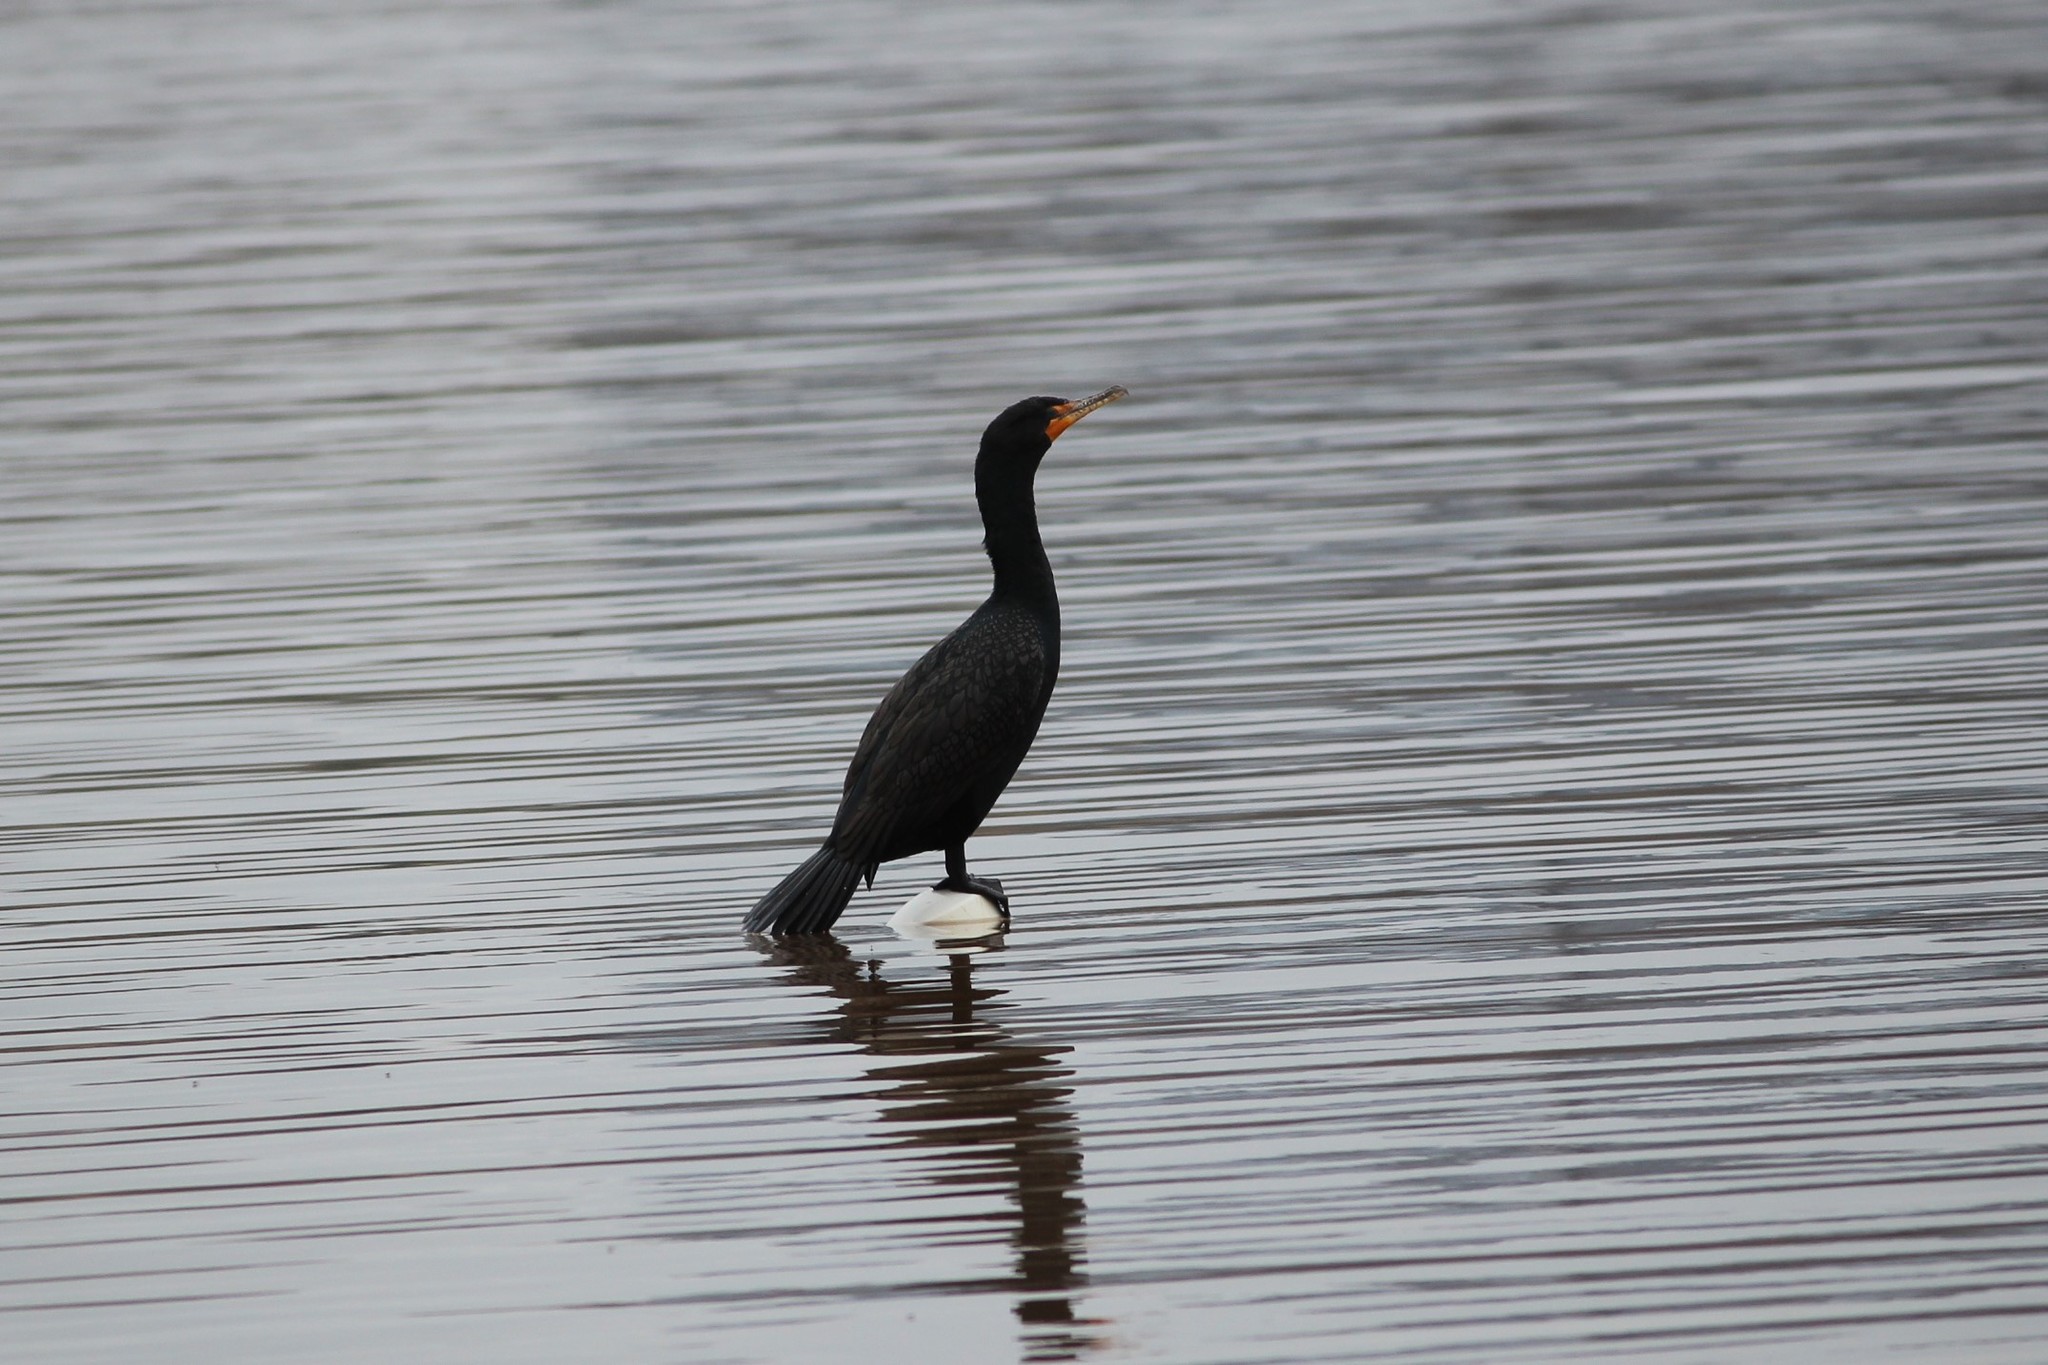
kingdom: Animalia
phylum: Chordata
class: Aves
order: Suliformes
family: Phalacrocoracidae
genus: Phalacrocorax
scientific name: Phalacrocorax auritus
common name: Double-crested cormorant
